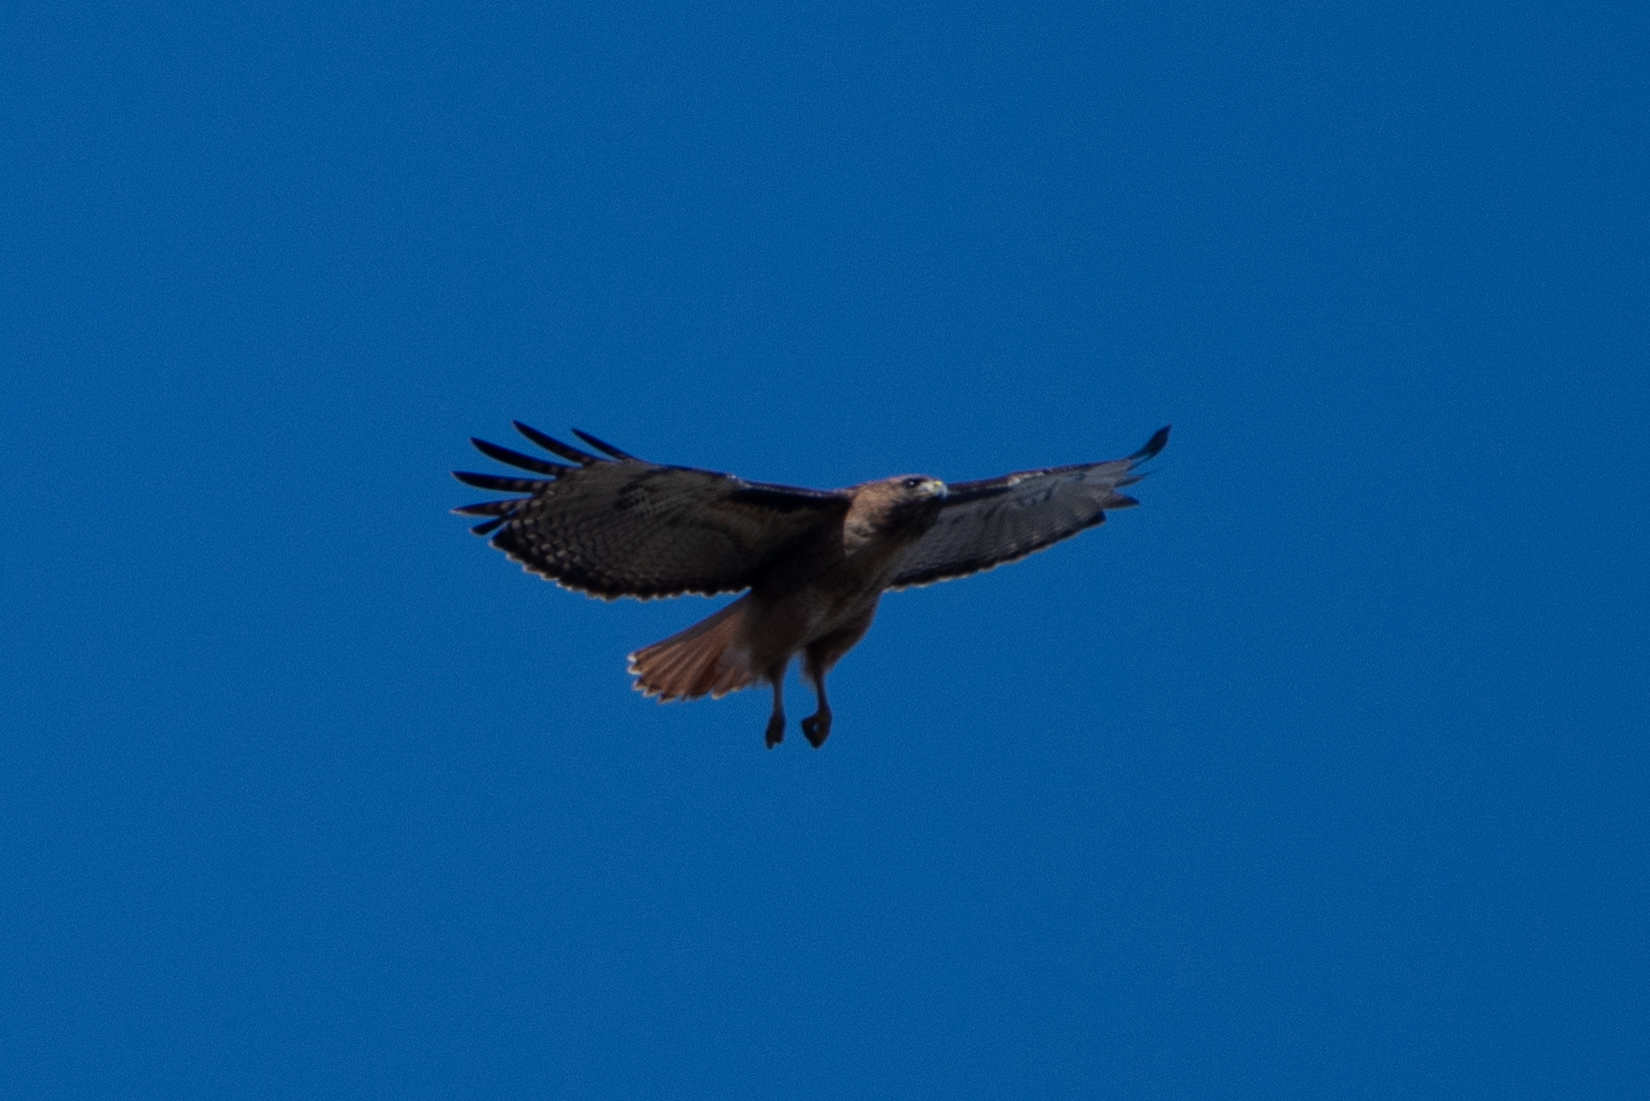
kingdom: Animalia
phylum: Chordata
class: Aves
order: Accipitriformes
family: Accipitridae
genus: Buteo
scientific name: Buteo jamaicensis
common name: Red-tailed hawk
